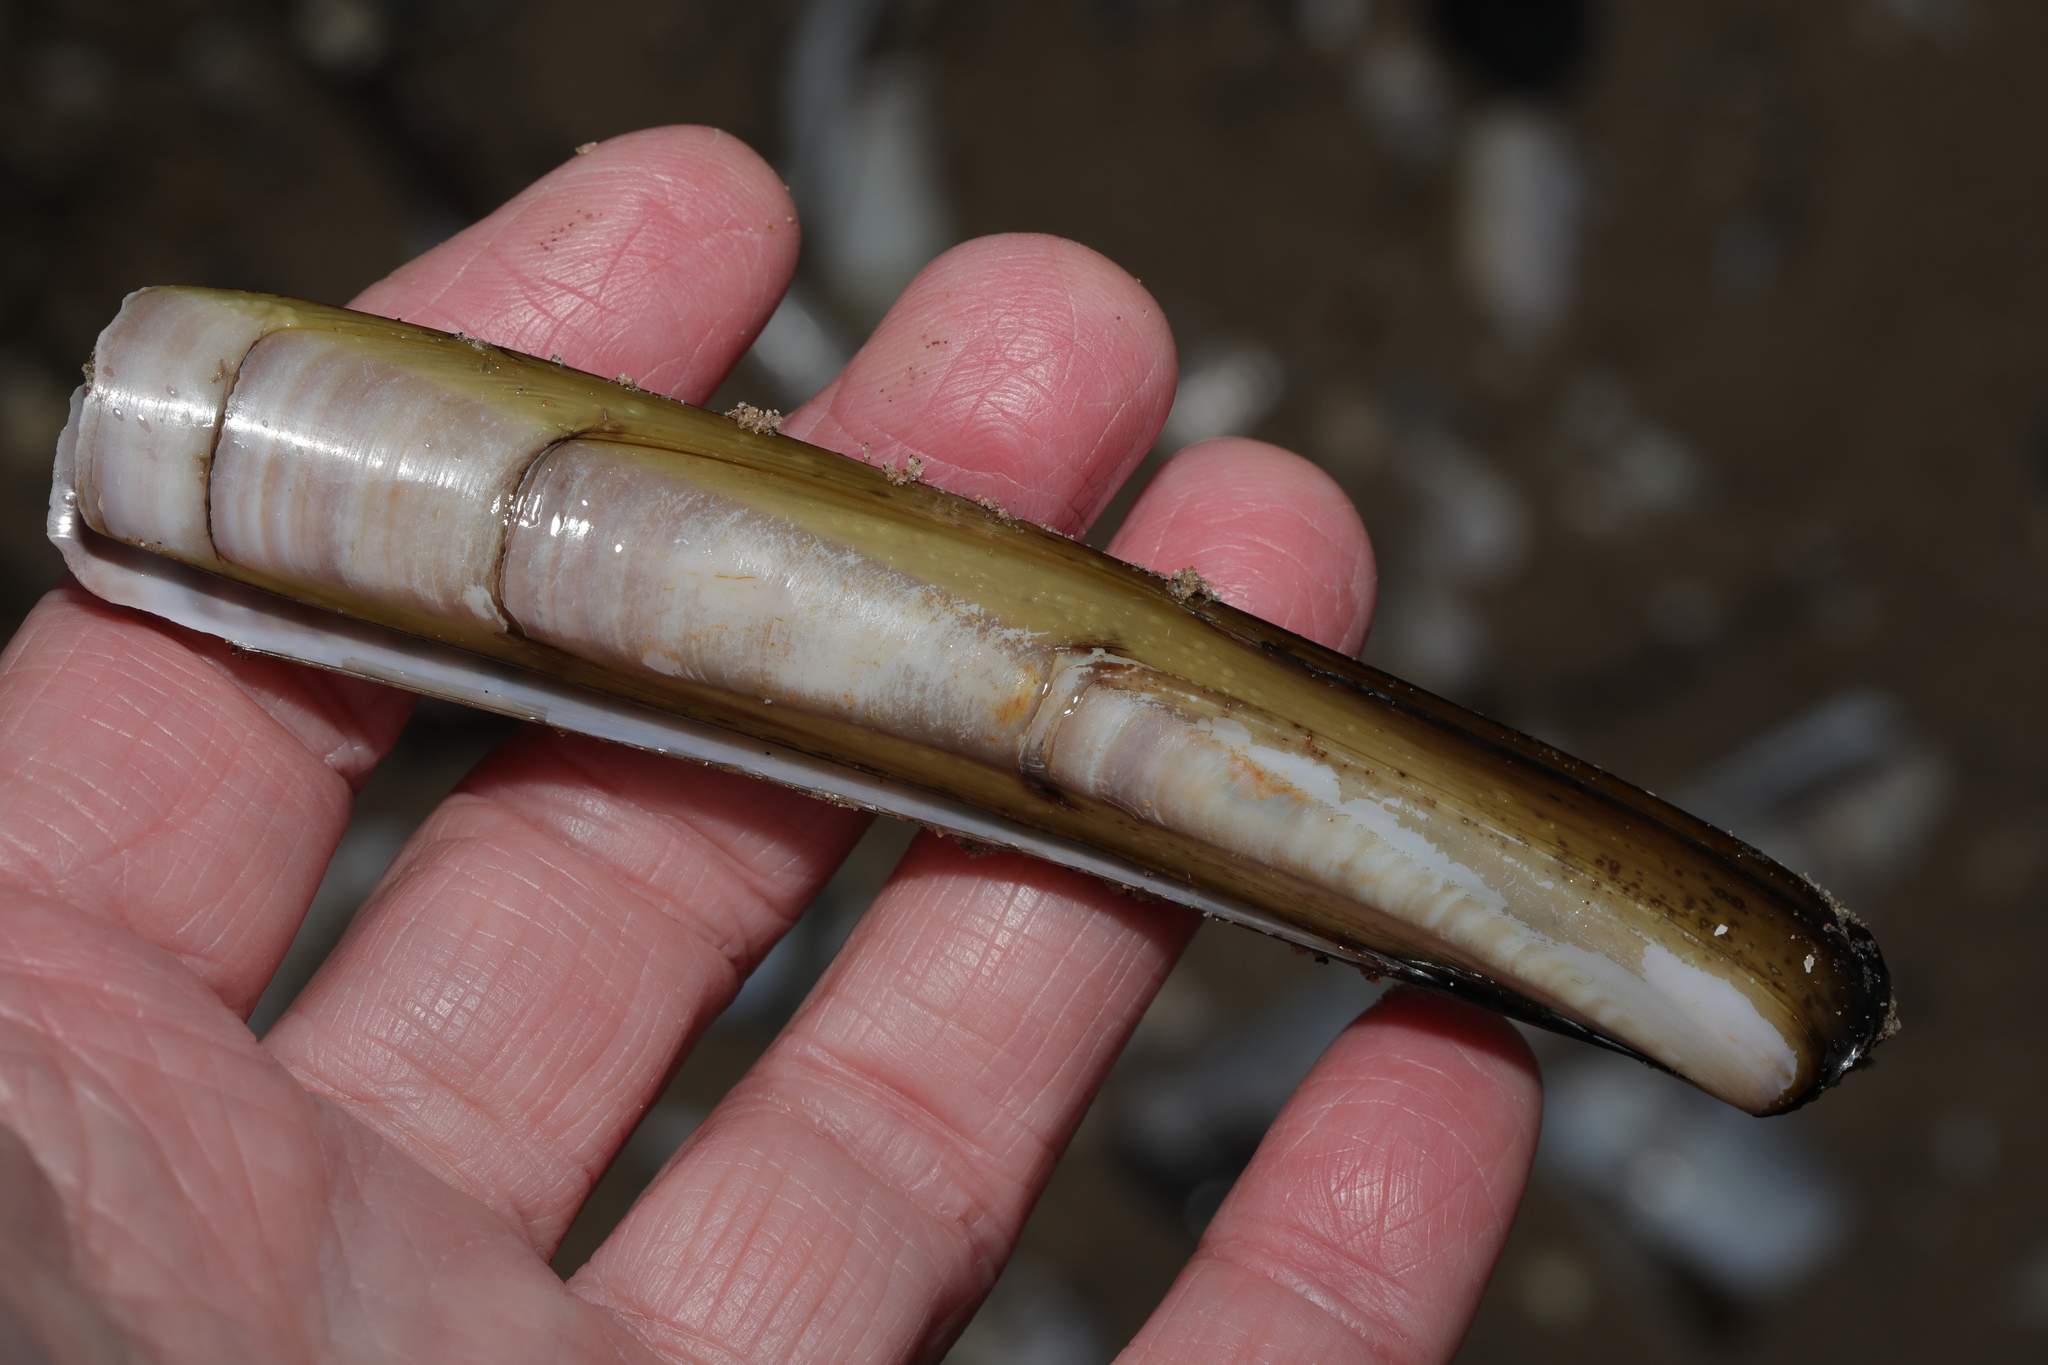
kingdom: Animalia
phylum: Mollusca
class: Bivalvia
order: Adapedonta
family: Pharidae
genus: Ensis
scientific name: Ensis leei
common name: American jack knife clam
